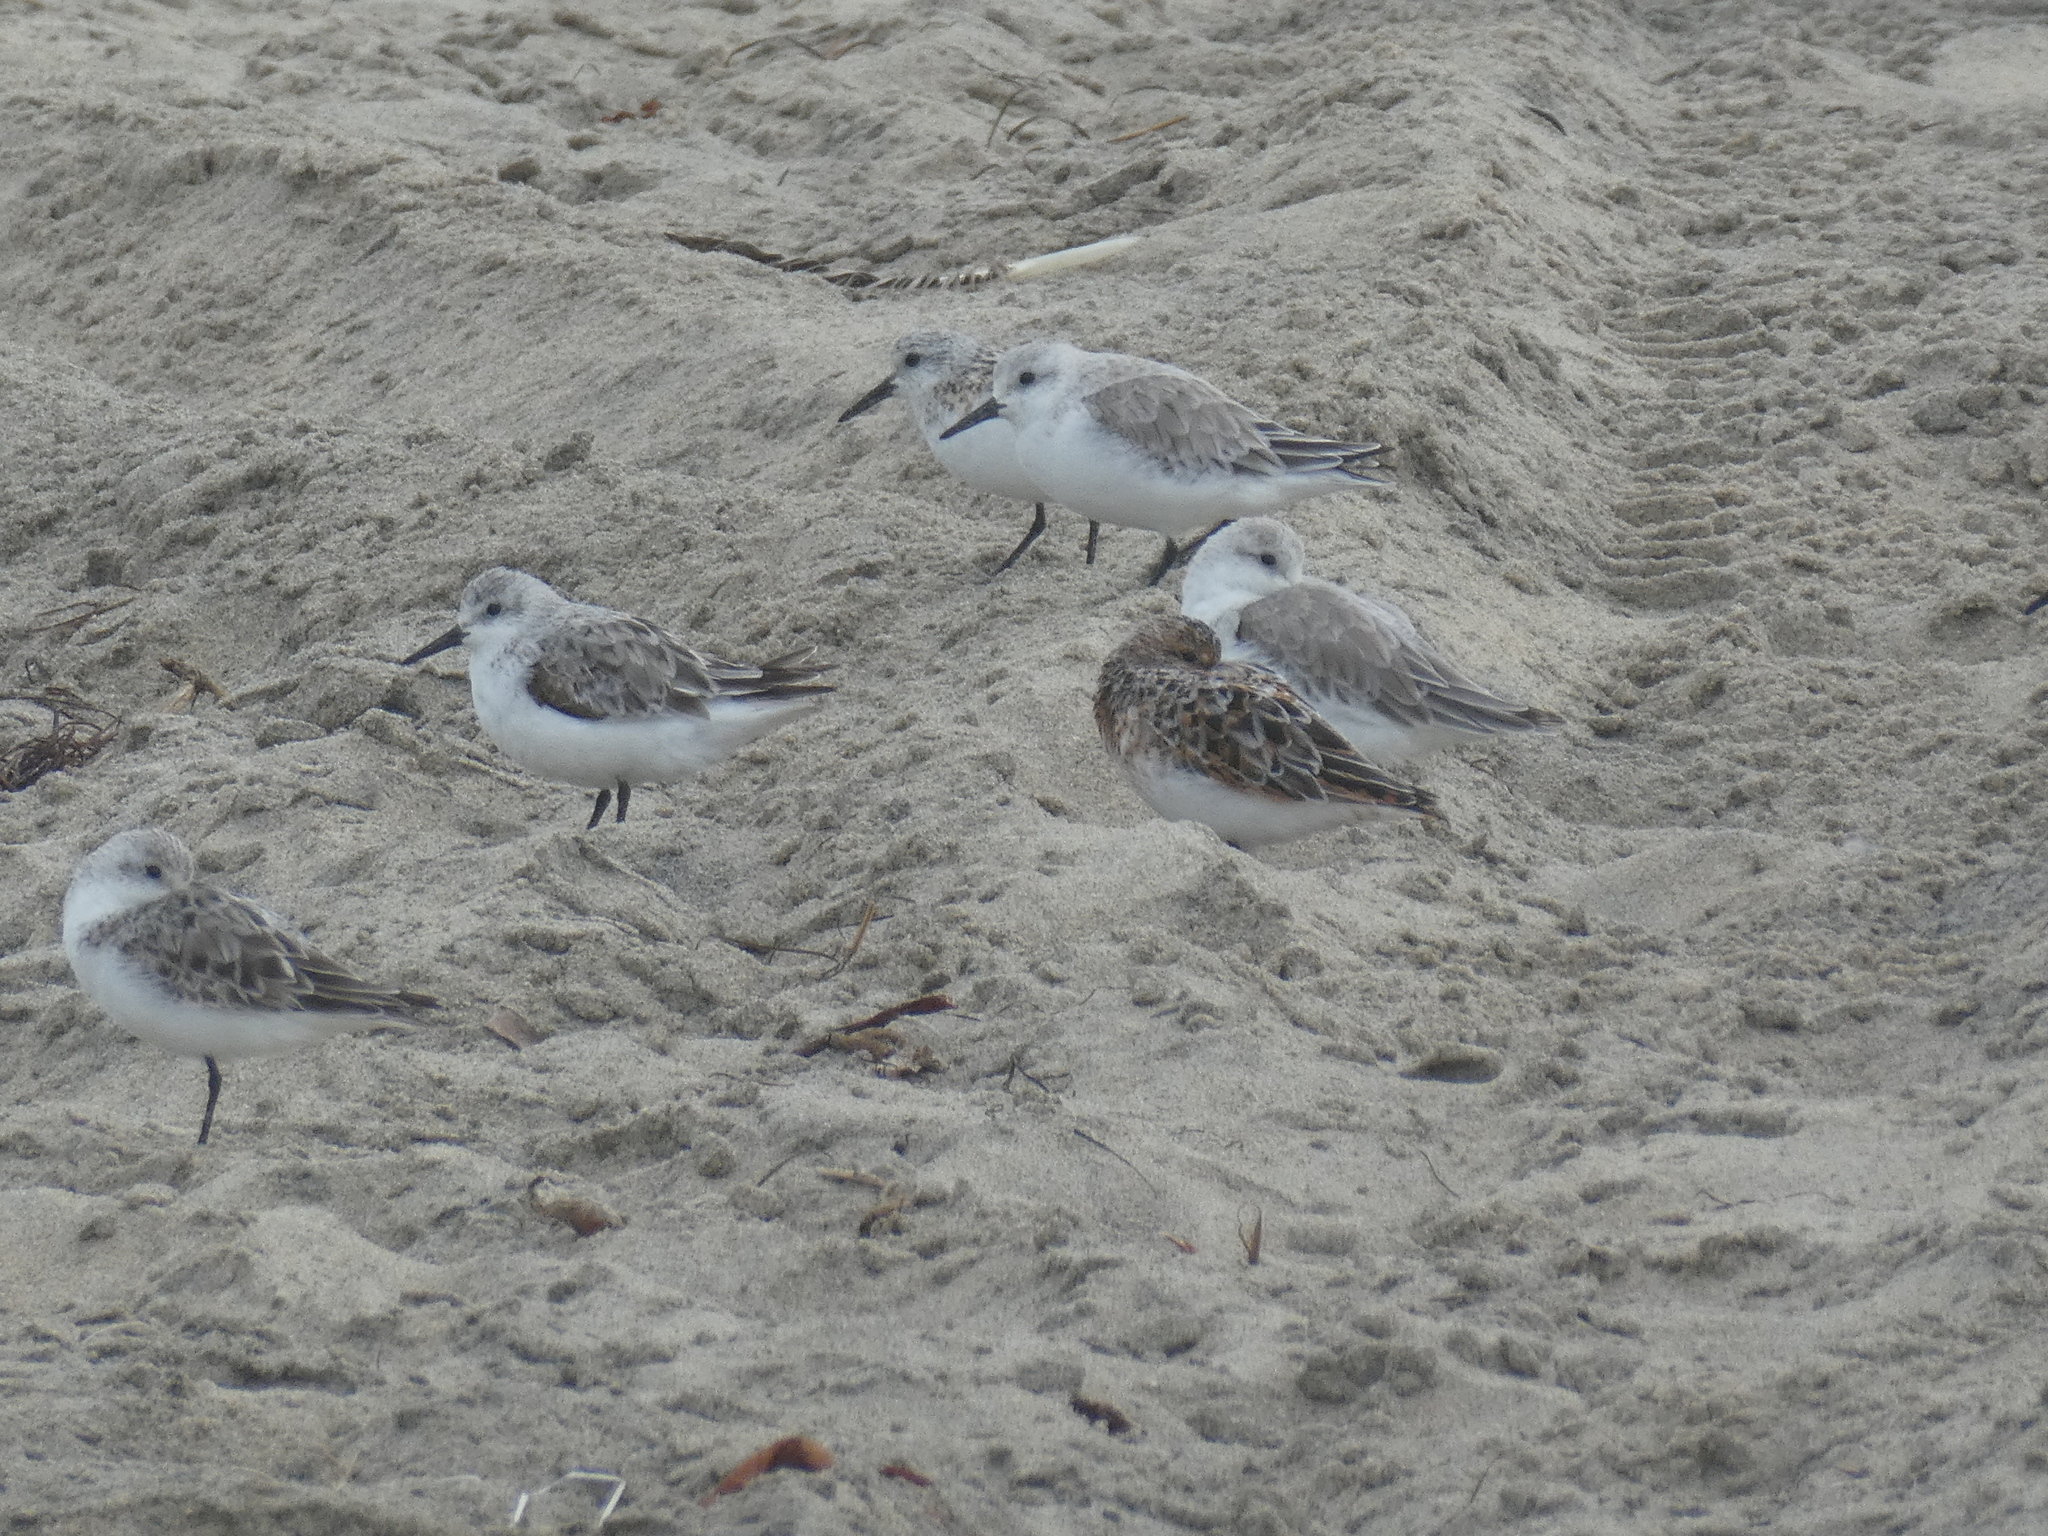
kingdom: Animalia
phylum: Chordata
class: Aves
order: Charadriiformes
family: Scolopacidae
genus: Calidris
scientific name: Calidris alba
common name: Sanderling
